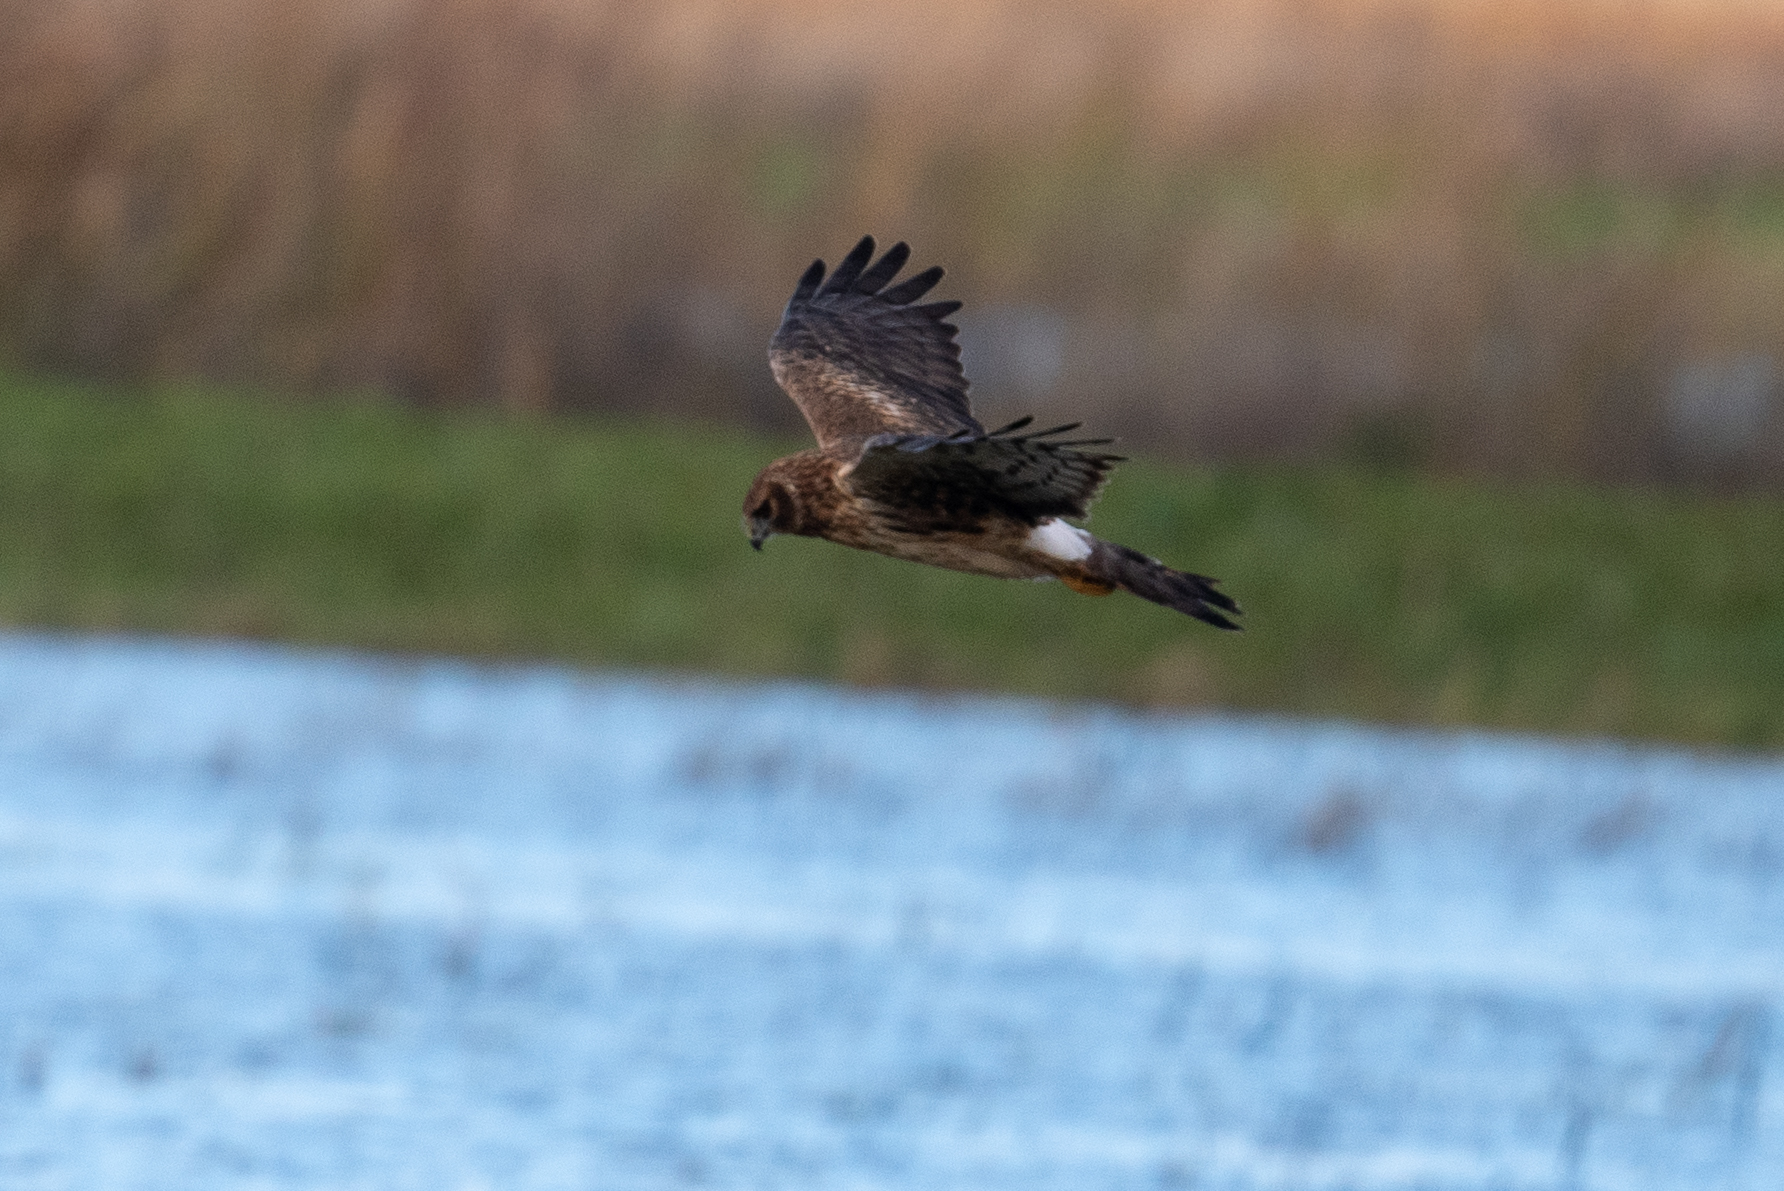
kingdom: Animalia
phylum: Chordata
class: Aves
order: Accipitriformes
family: Accipitridae
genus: Circus
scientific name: Circus cyaneus
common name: Hen harrier
